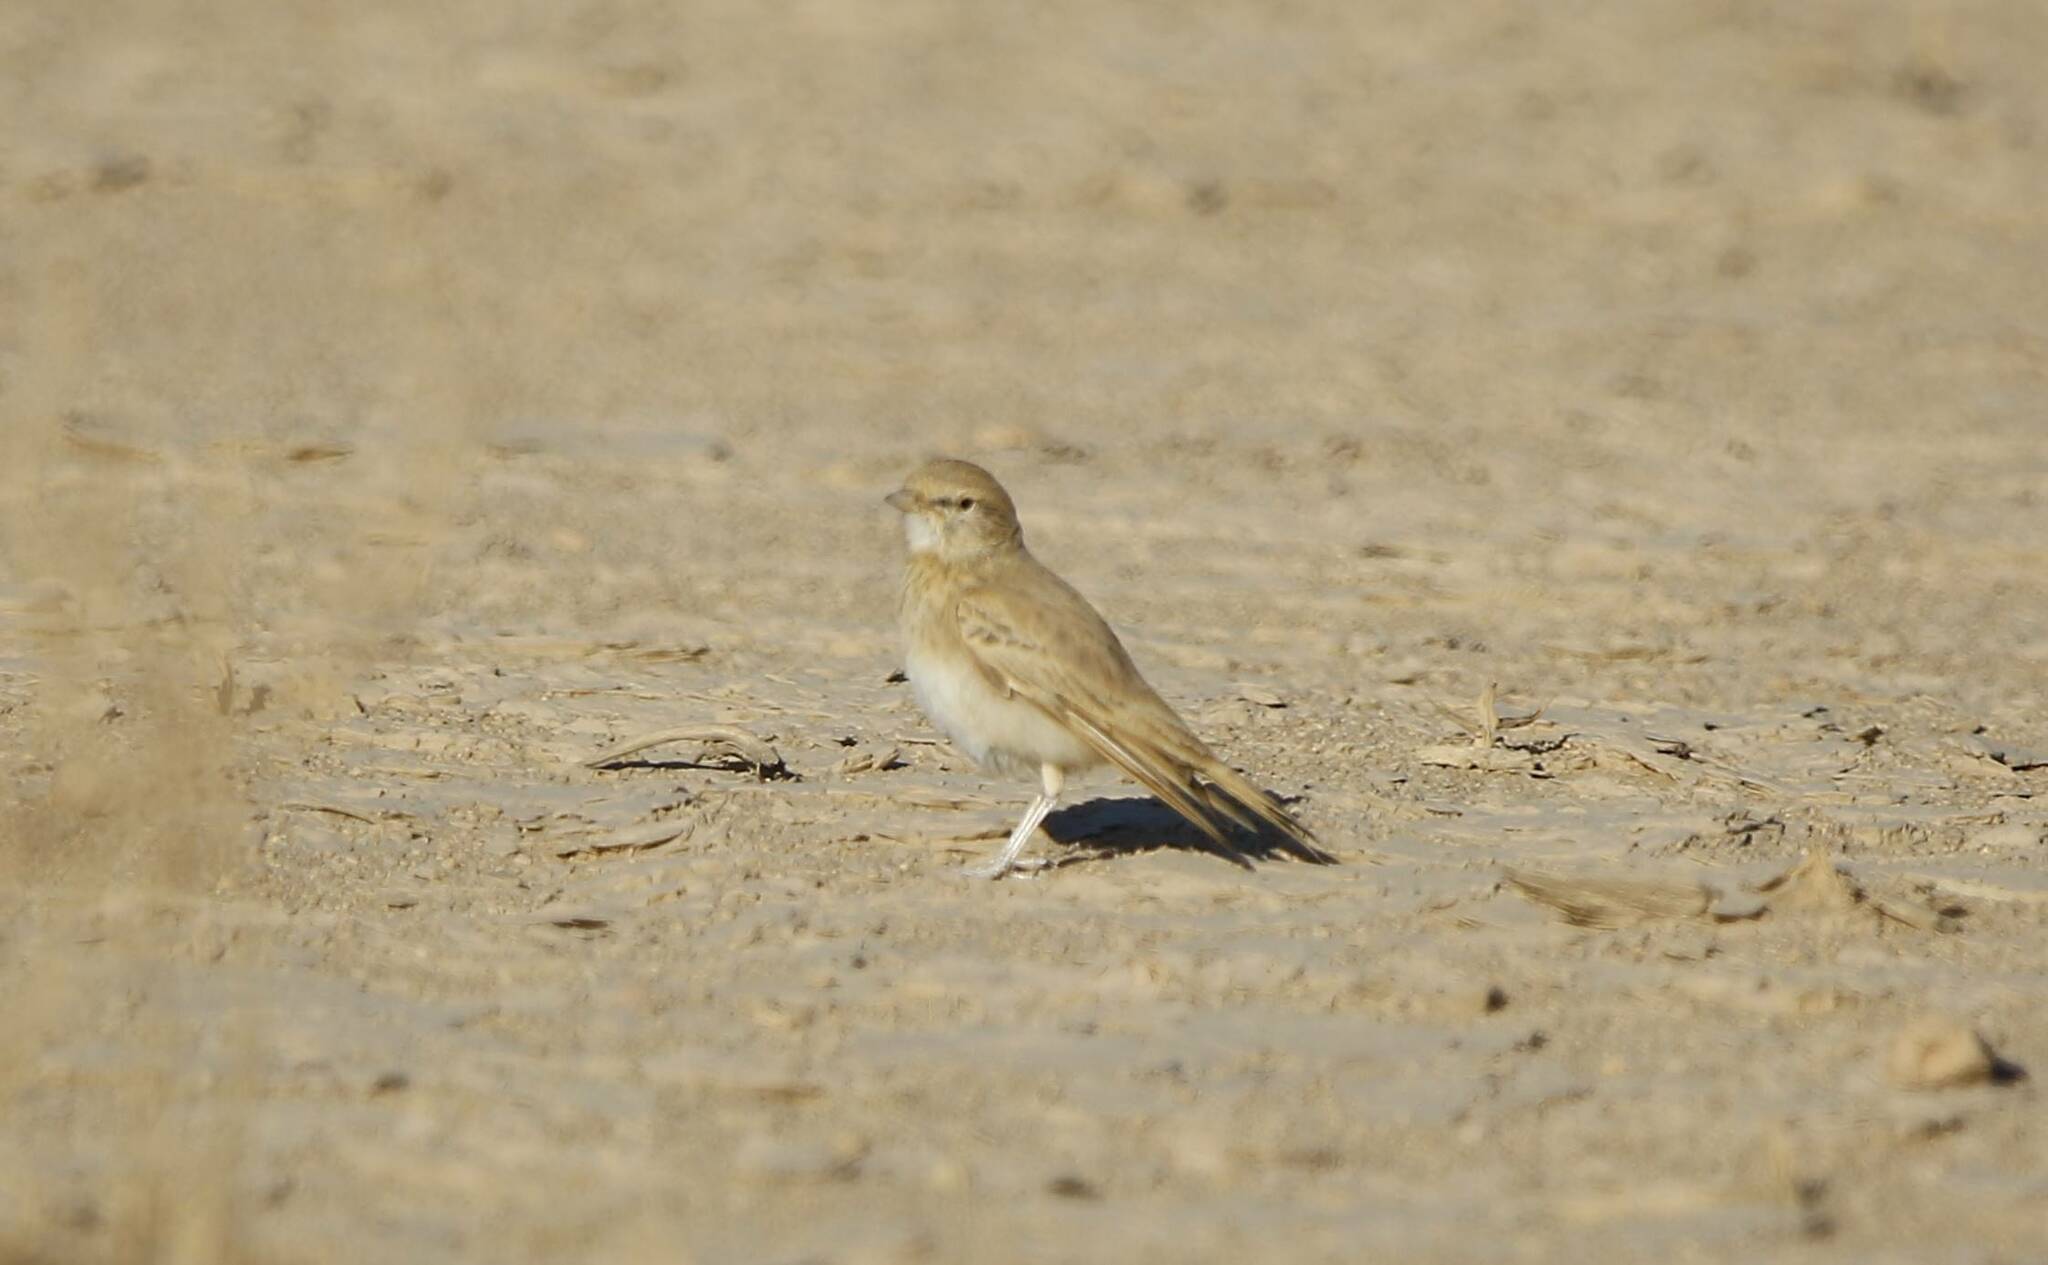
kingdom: Animalia
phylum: Chordata
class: Aves
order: Passeriformes
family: Alaudidae
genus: Ammomanes
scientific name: Ammomanes cinctura
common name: Bar-tailed lark
